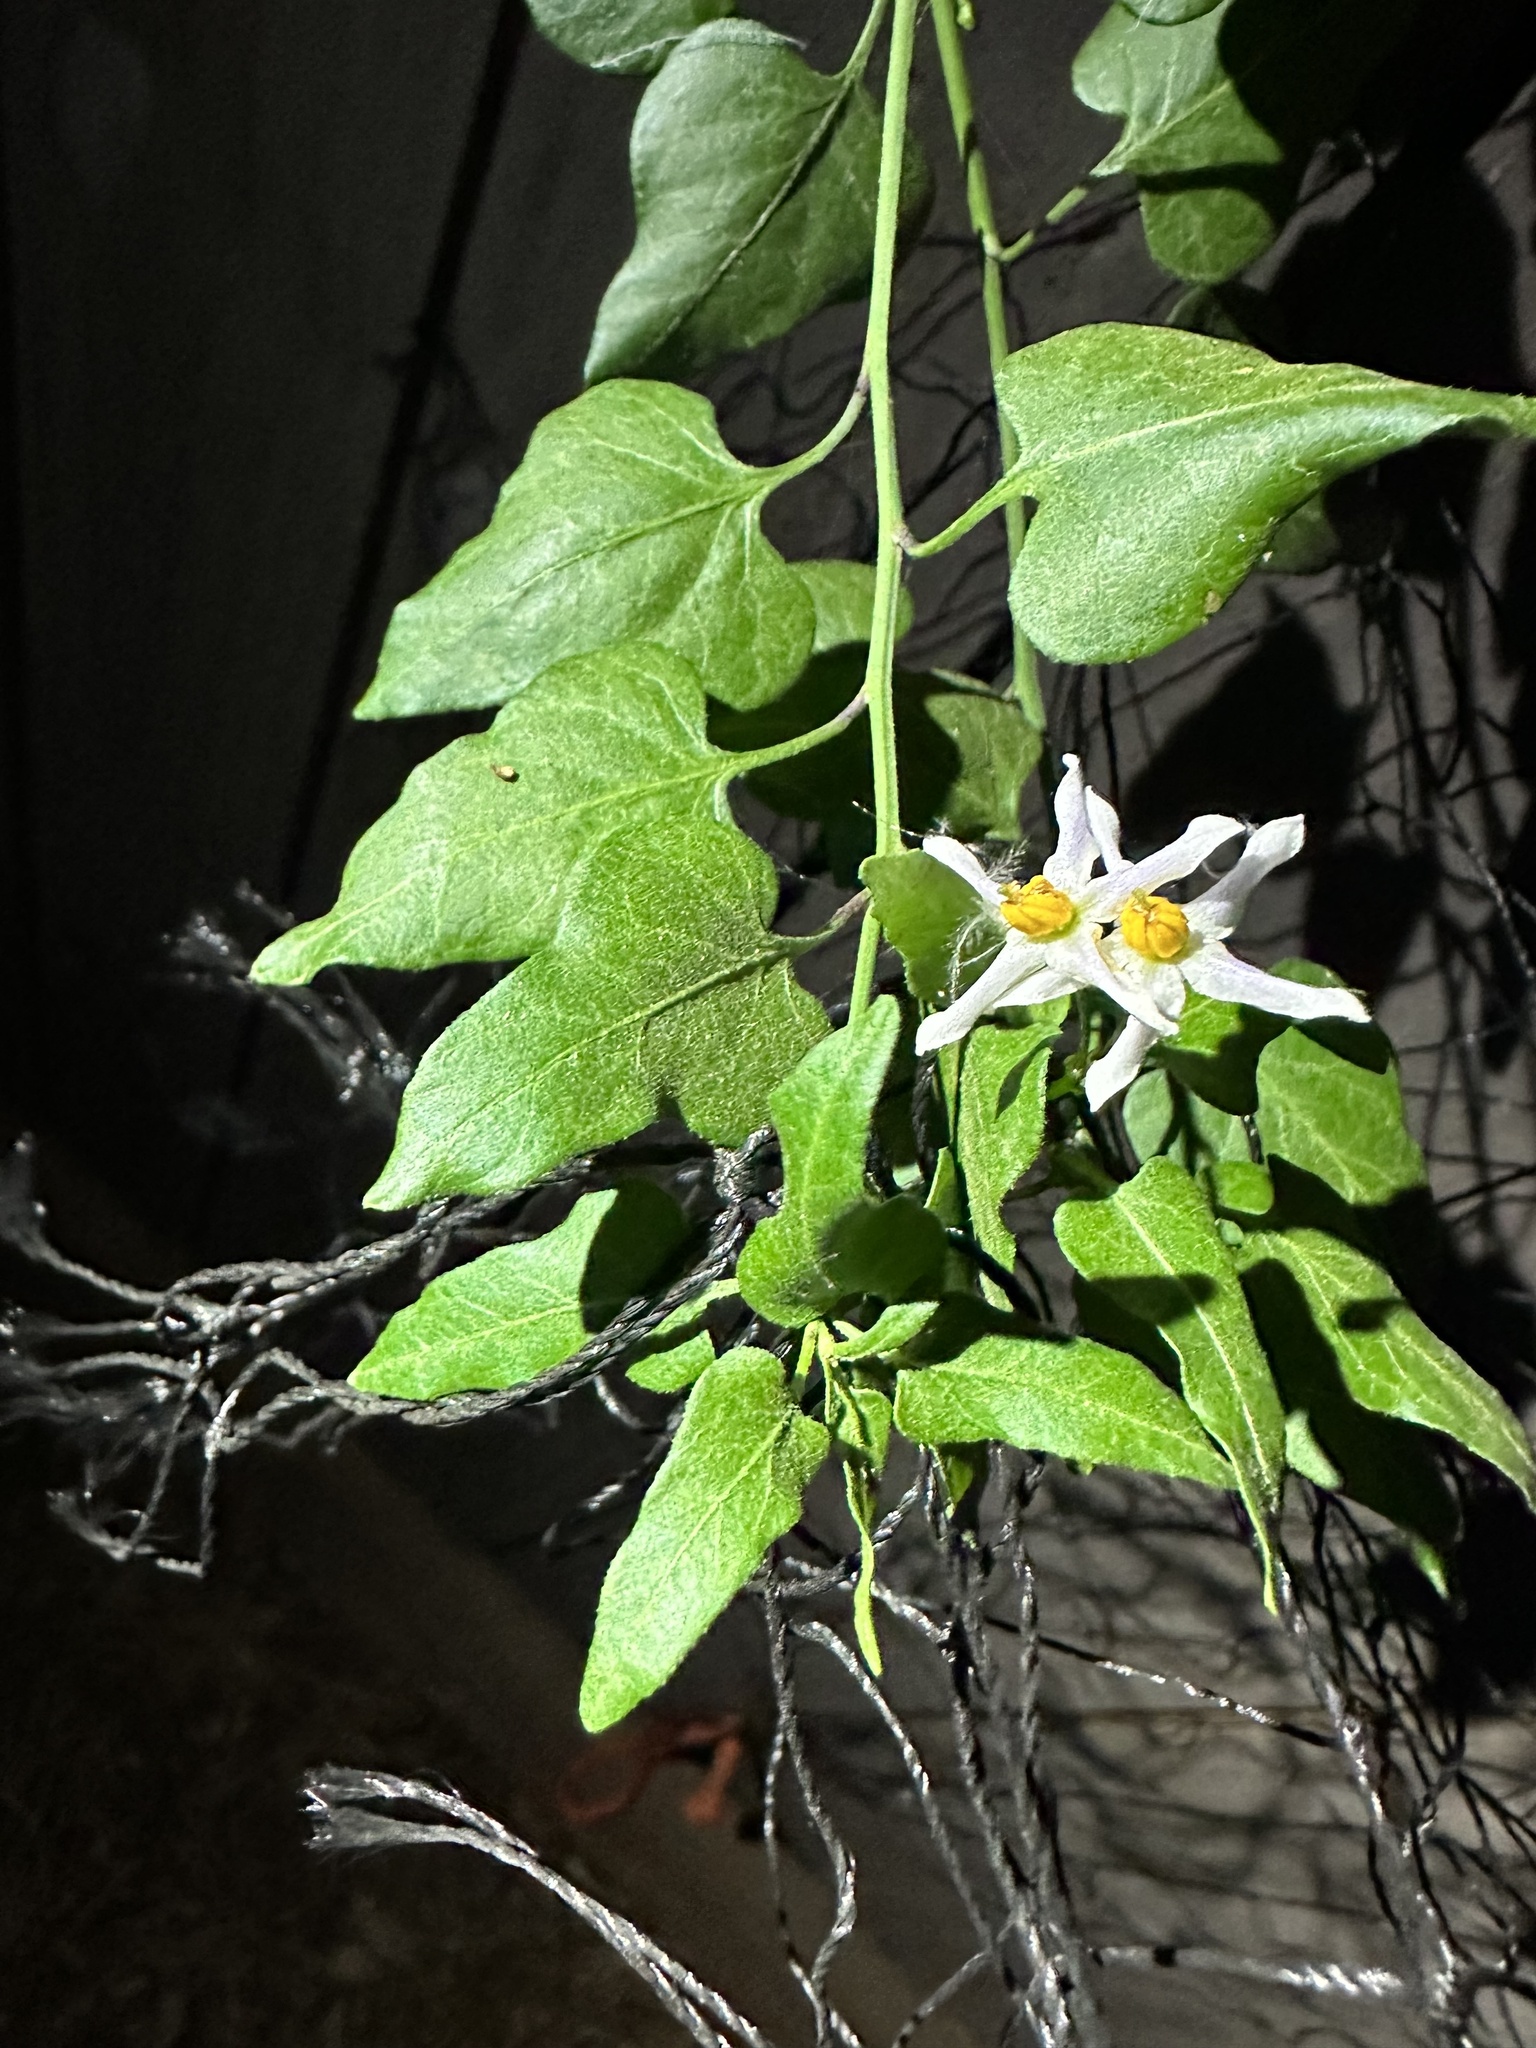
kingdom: Plantae
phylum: Tracheophyta
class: Magnoliopsida
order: Solanales
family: Solanaceae
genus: Solanum
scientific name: Solanum triquetrum
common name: Texas nightshade
